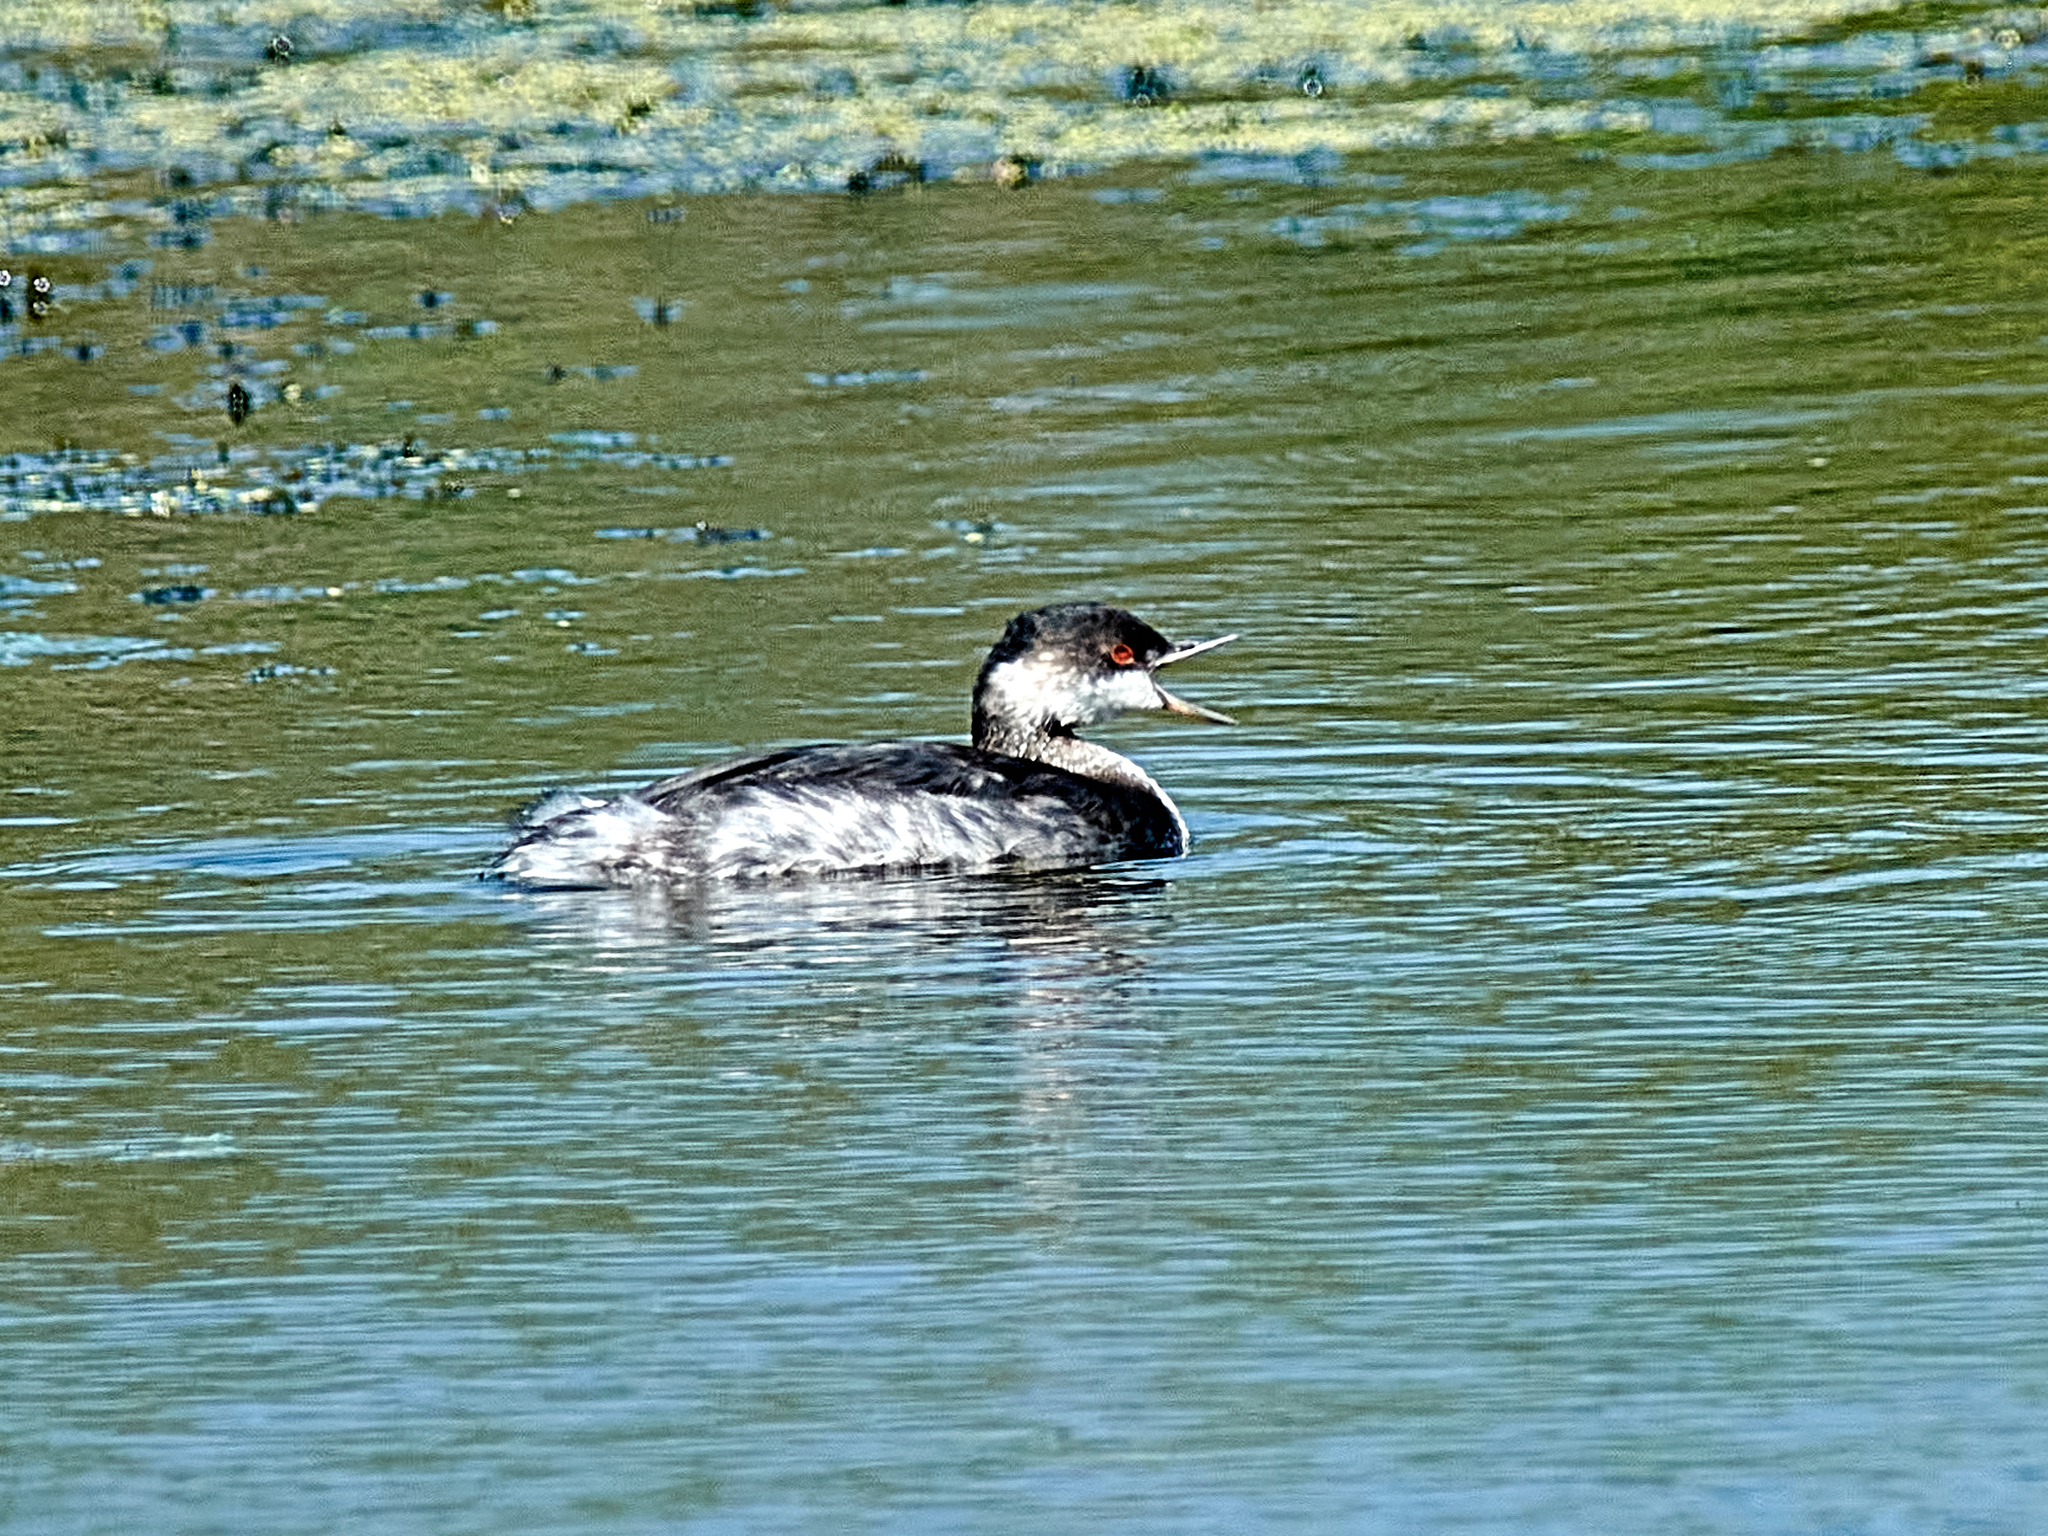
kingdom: Animalia
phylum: Chordata
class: Aves
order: Podicipediformes
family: Podicipedidae
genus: Podiceps
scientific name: Podiceps nigricollis
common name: Black-necked grebe
